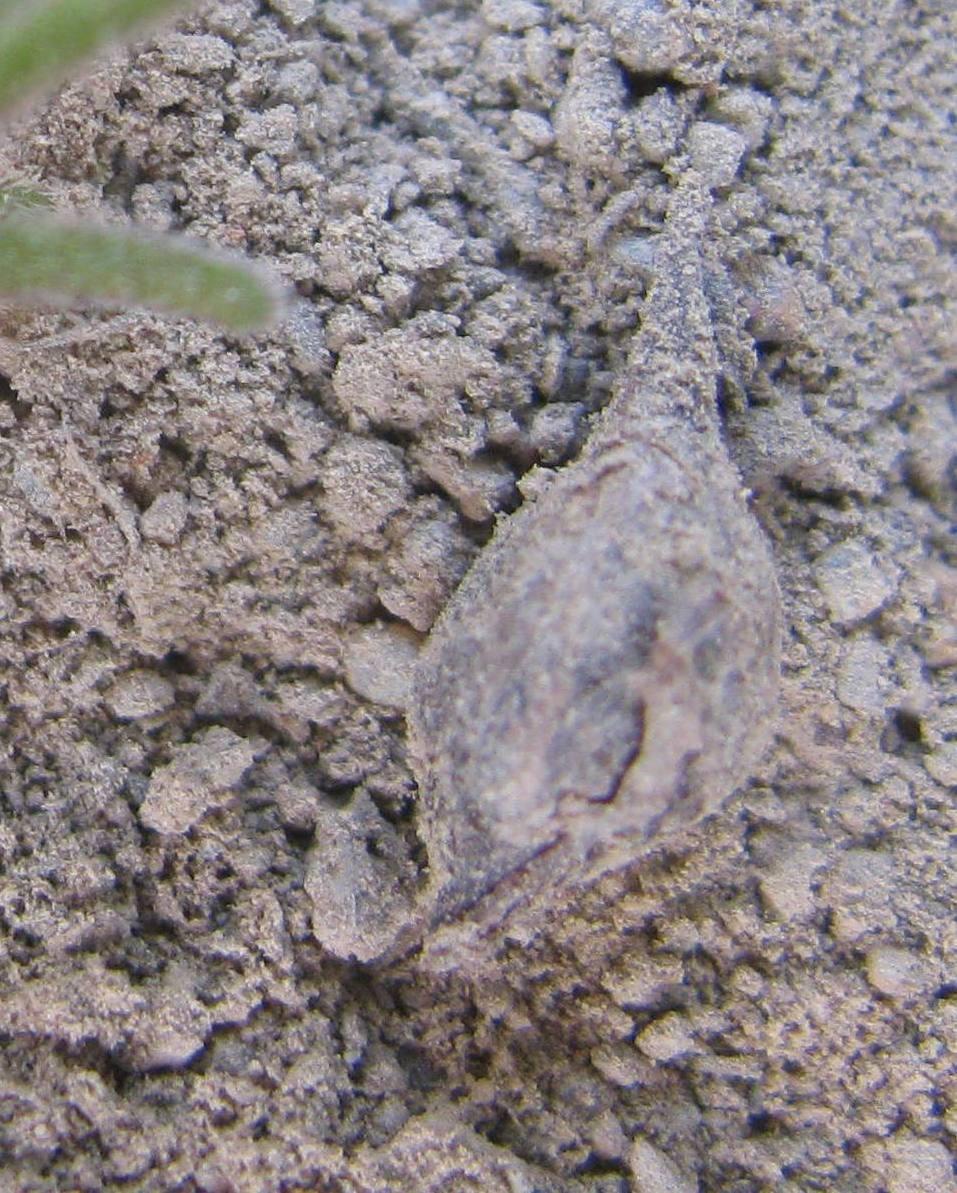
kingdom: Plantae
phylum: Tracheophyta
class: Magnoliopsida
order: Oxalidales
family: Oxalidaceae
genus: Oxalis
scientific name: Oxalis glabra
